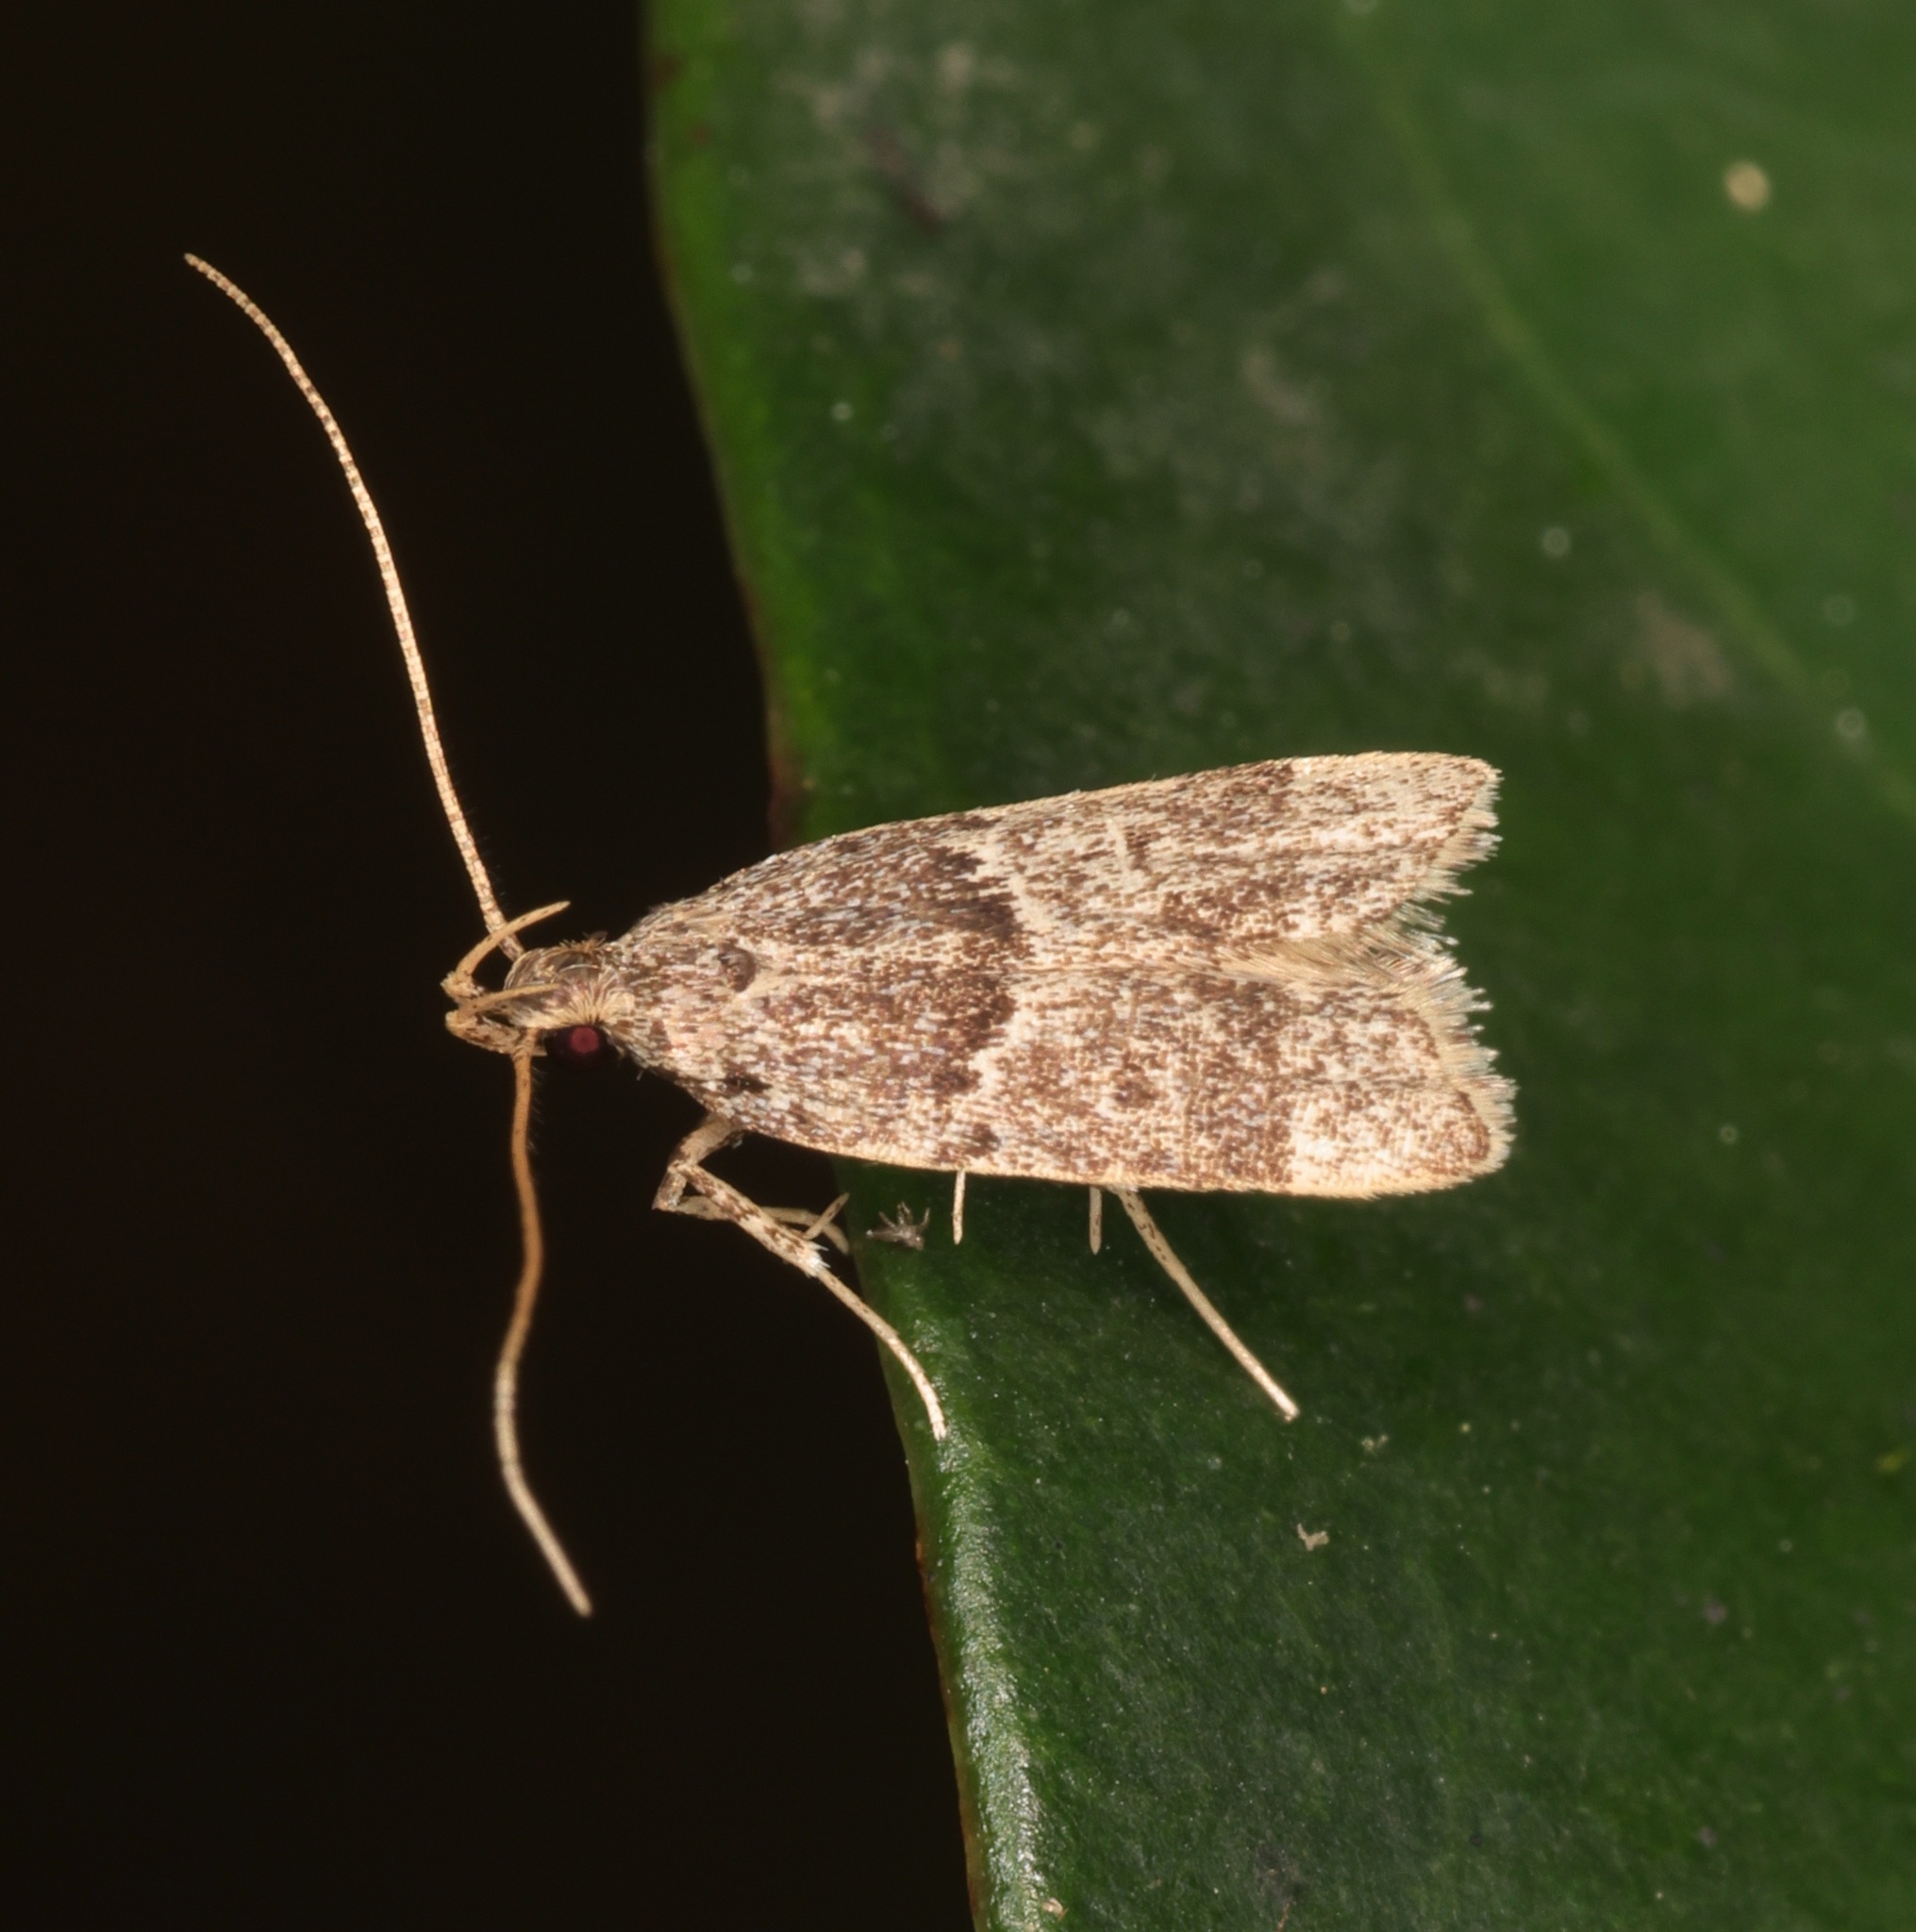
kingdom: Animalia
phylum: Arthropoda
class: Insecta
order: Lepidoptera
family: Lecithoceridae
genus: Athymoris
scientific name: Athymoris martialis
